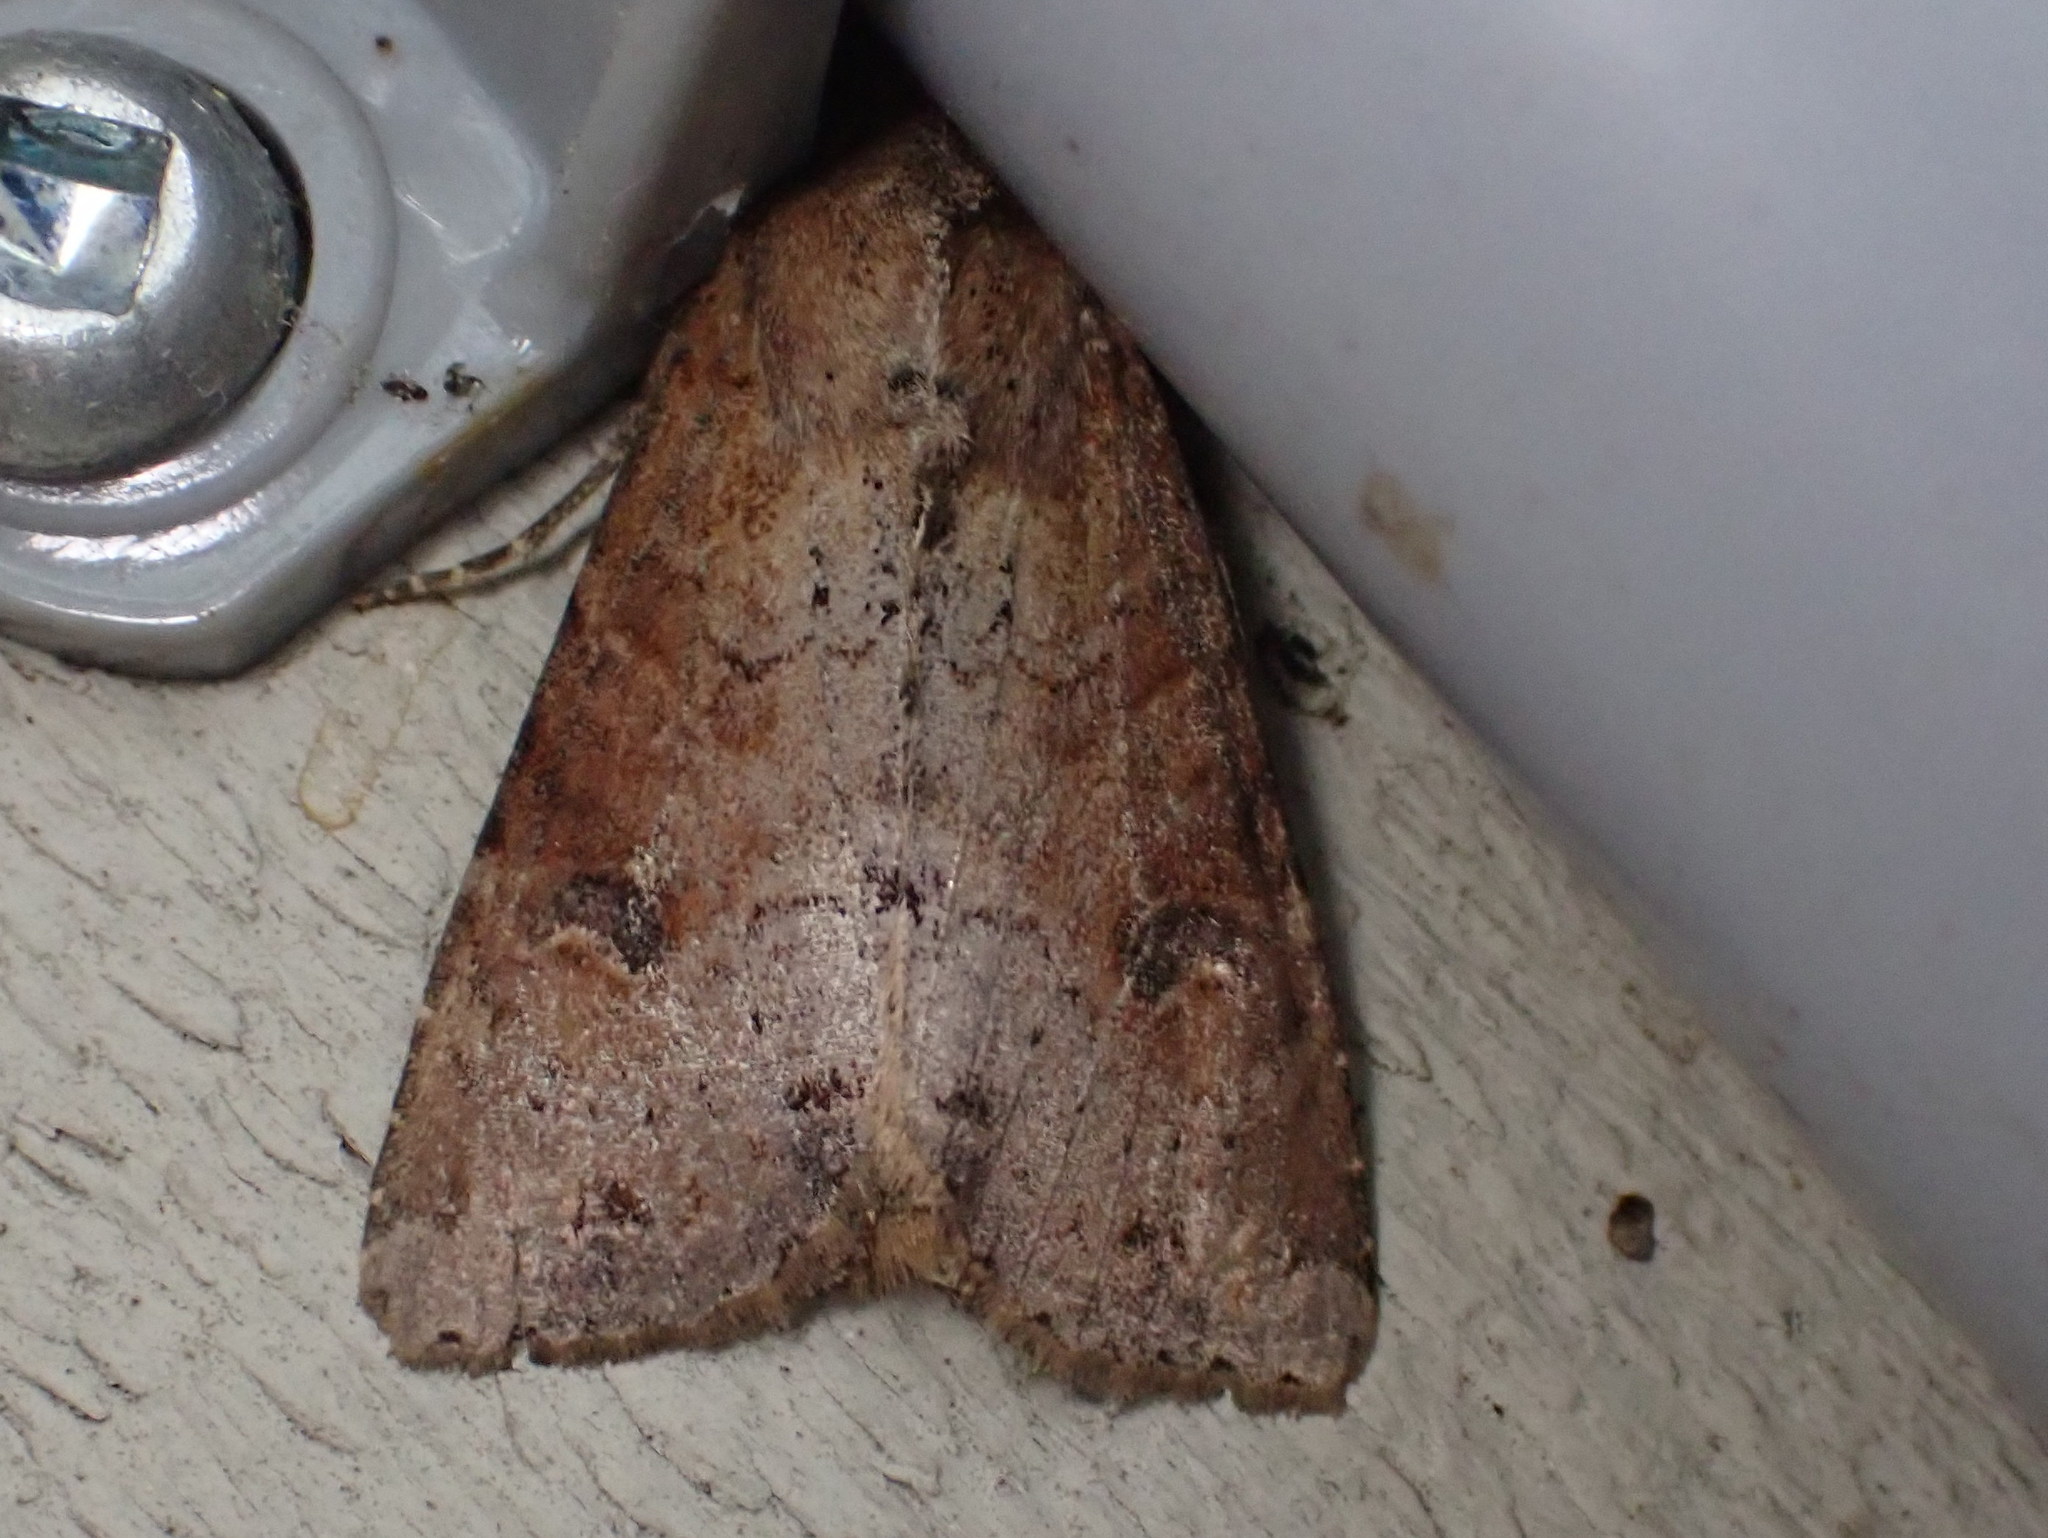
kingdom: Animalia
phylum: Arthropoda
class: Insecta
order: Lepidoptera
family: Noctuidae
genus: Apamea
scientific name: Apamea alia
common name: Fox apamea
